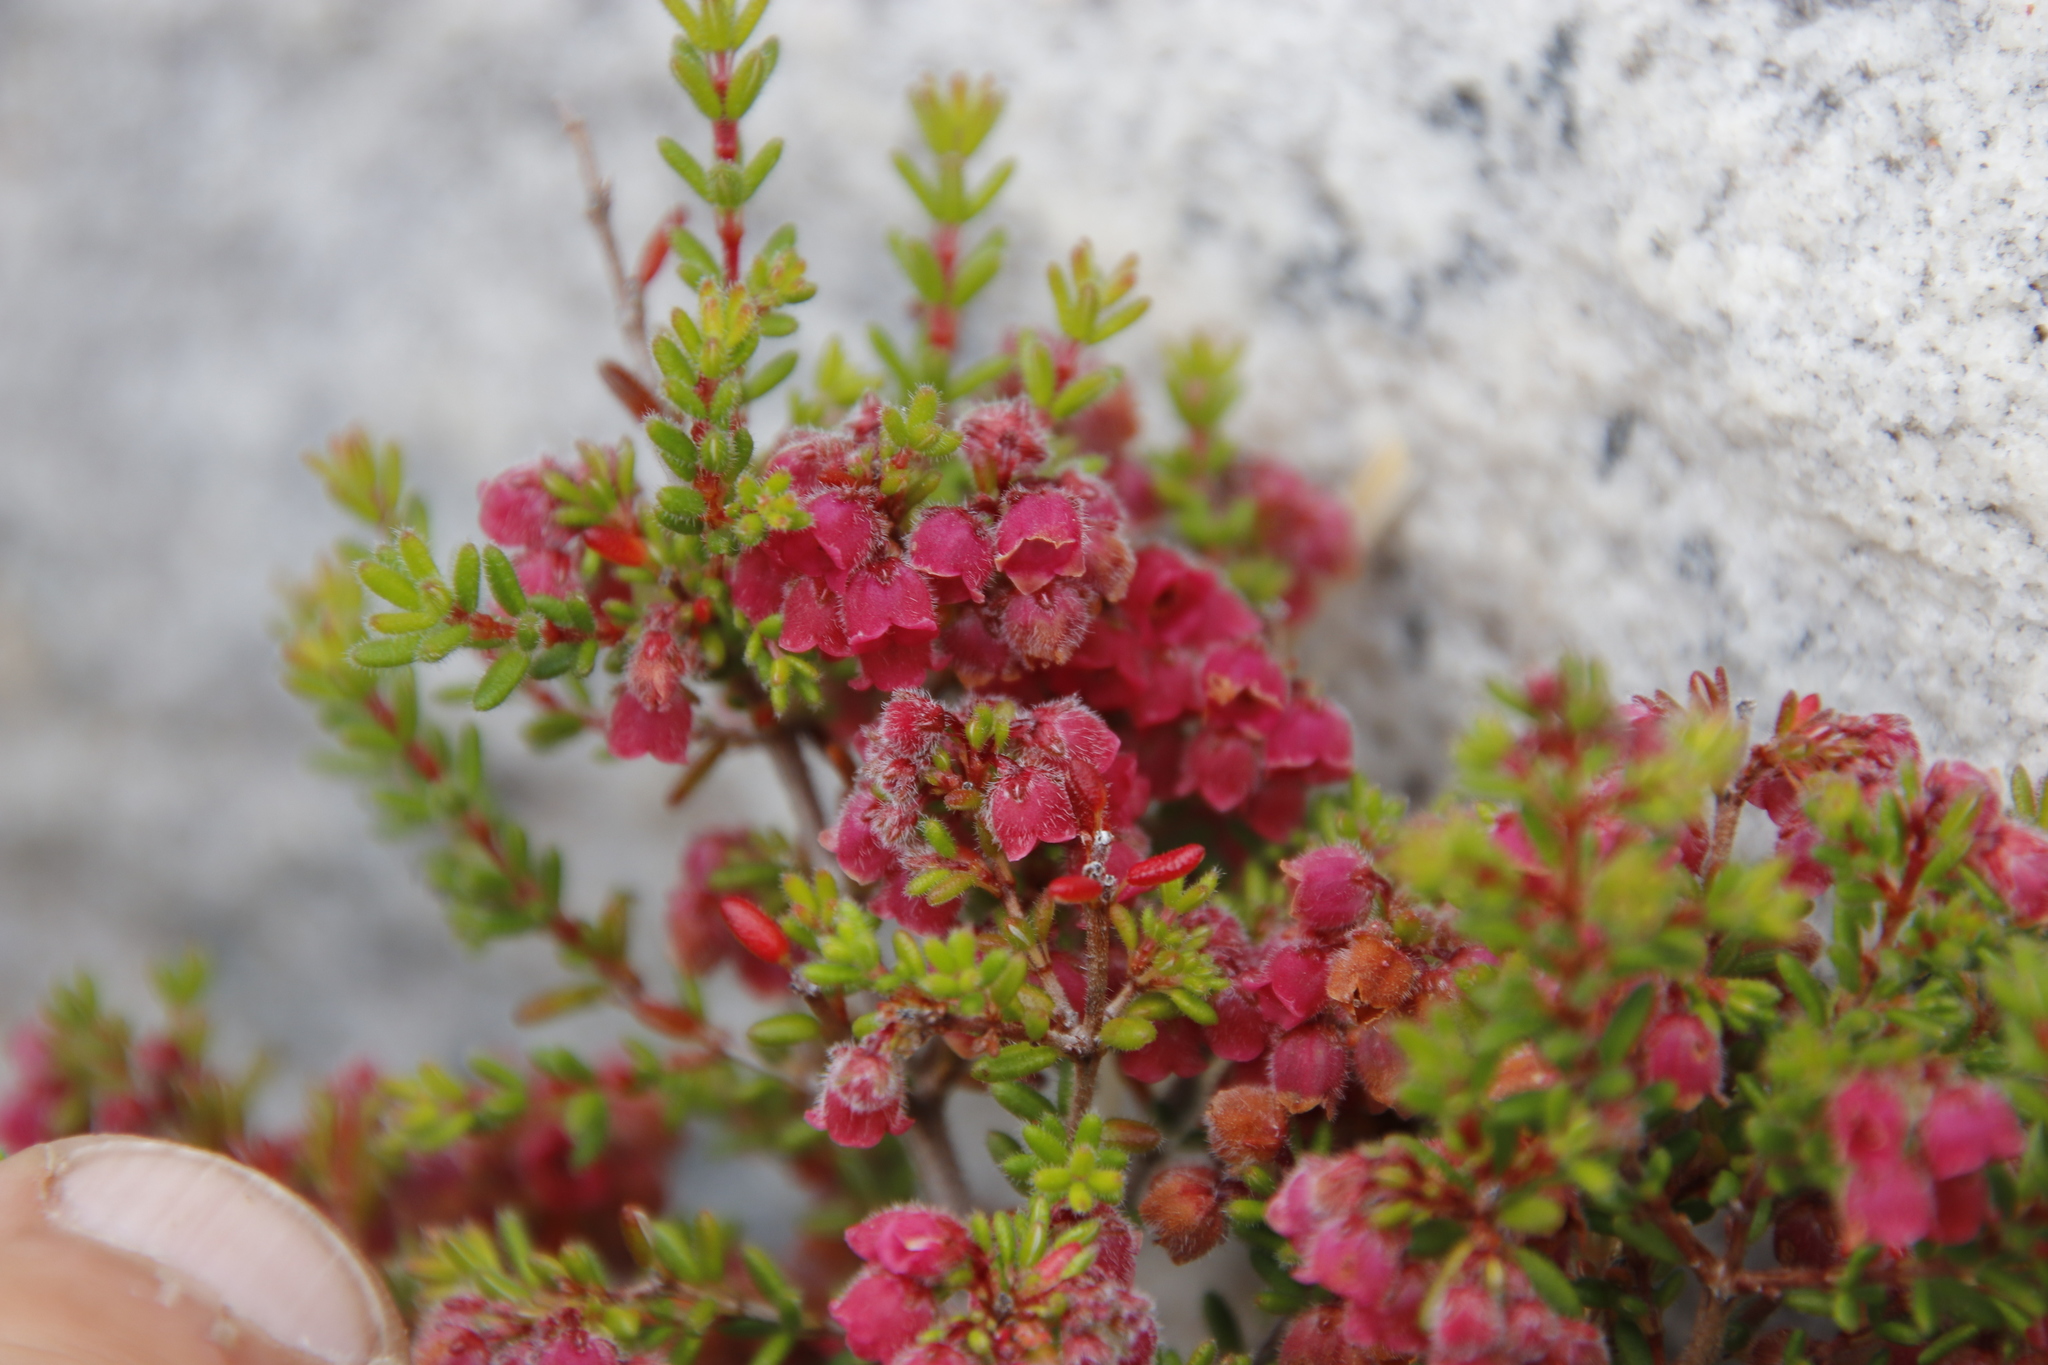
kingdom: Plantae
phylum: Tracheophyta
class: Magnoliopsida
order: Ericales
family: Ericaceae
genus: Erica
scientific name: Erica haematocodon
